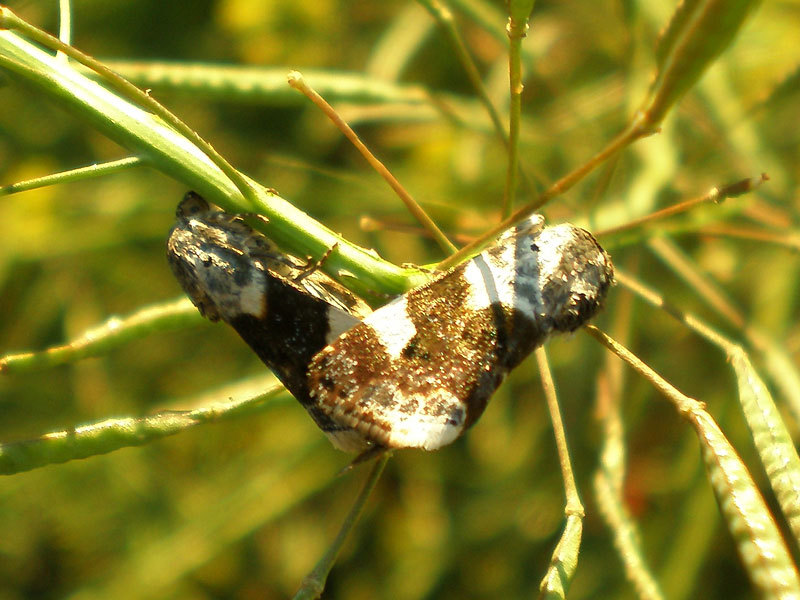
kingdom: Animalia
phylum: Arthropoda
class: Insecta
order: Lepidoptera
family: Noctuidae
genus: Acontia
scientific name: Acontia lucida
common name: Pale shoulder
